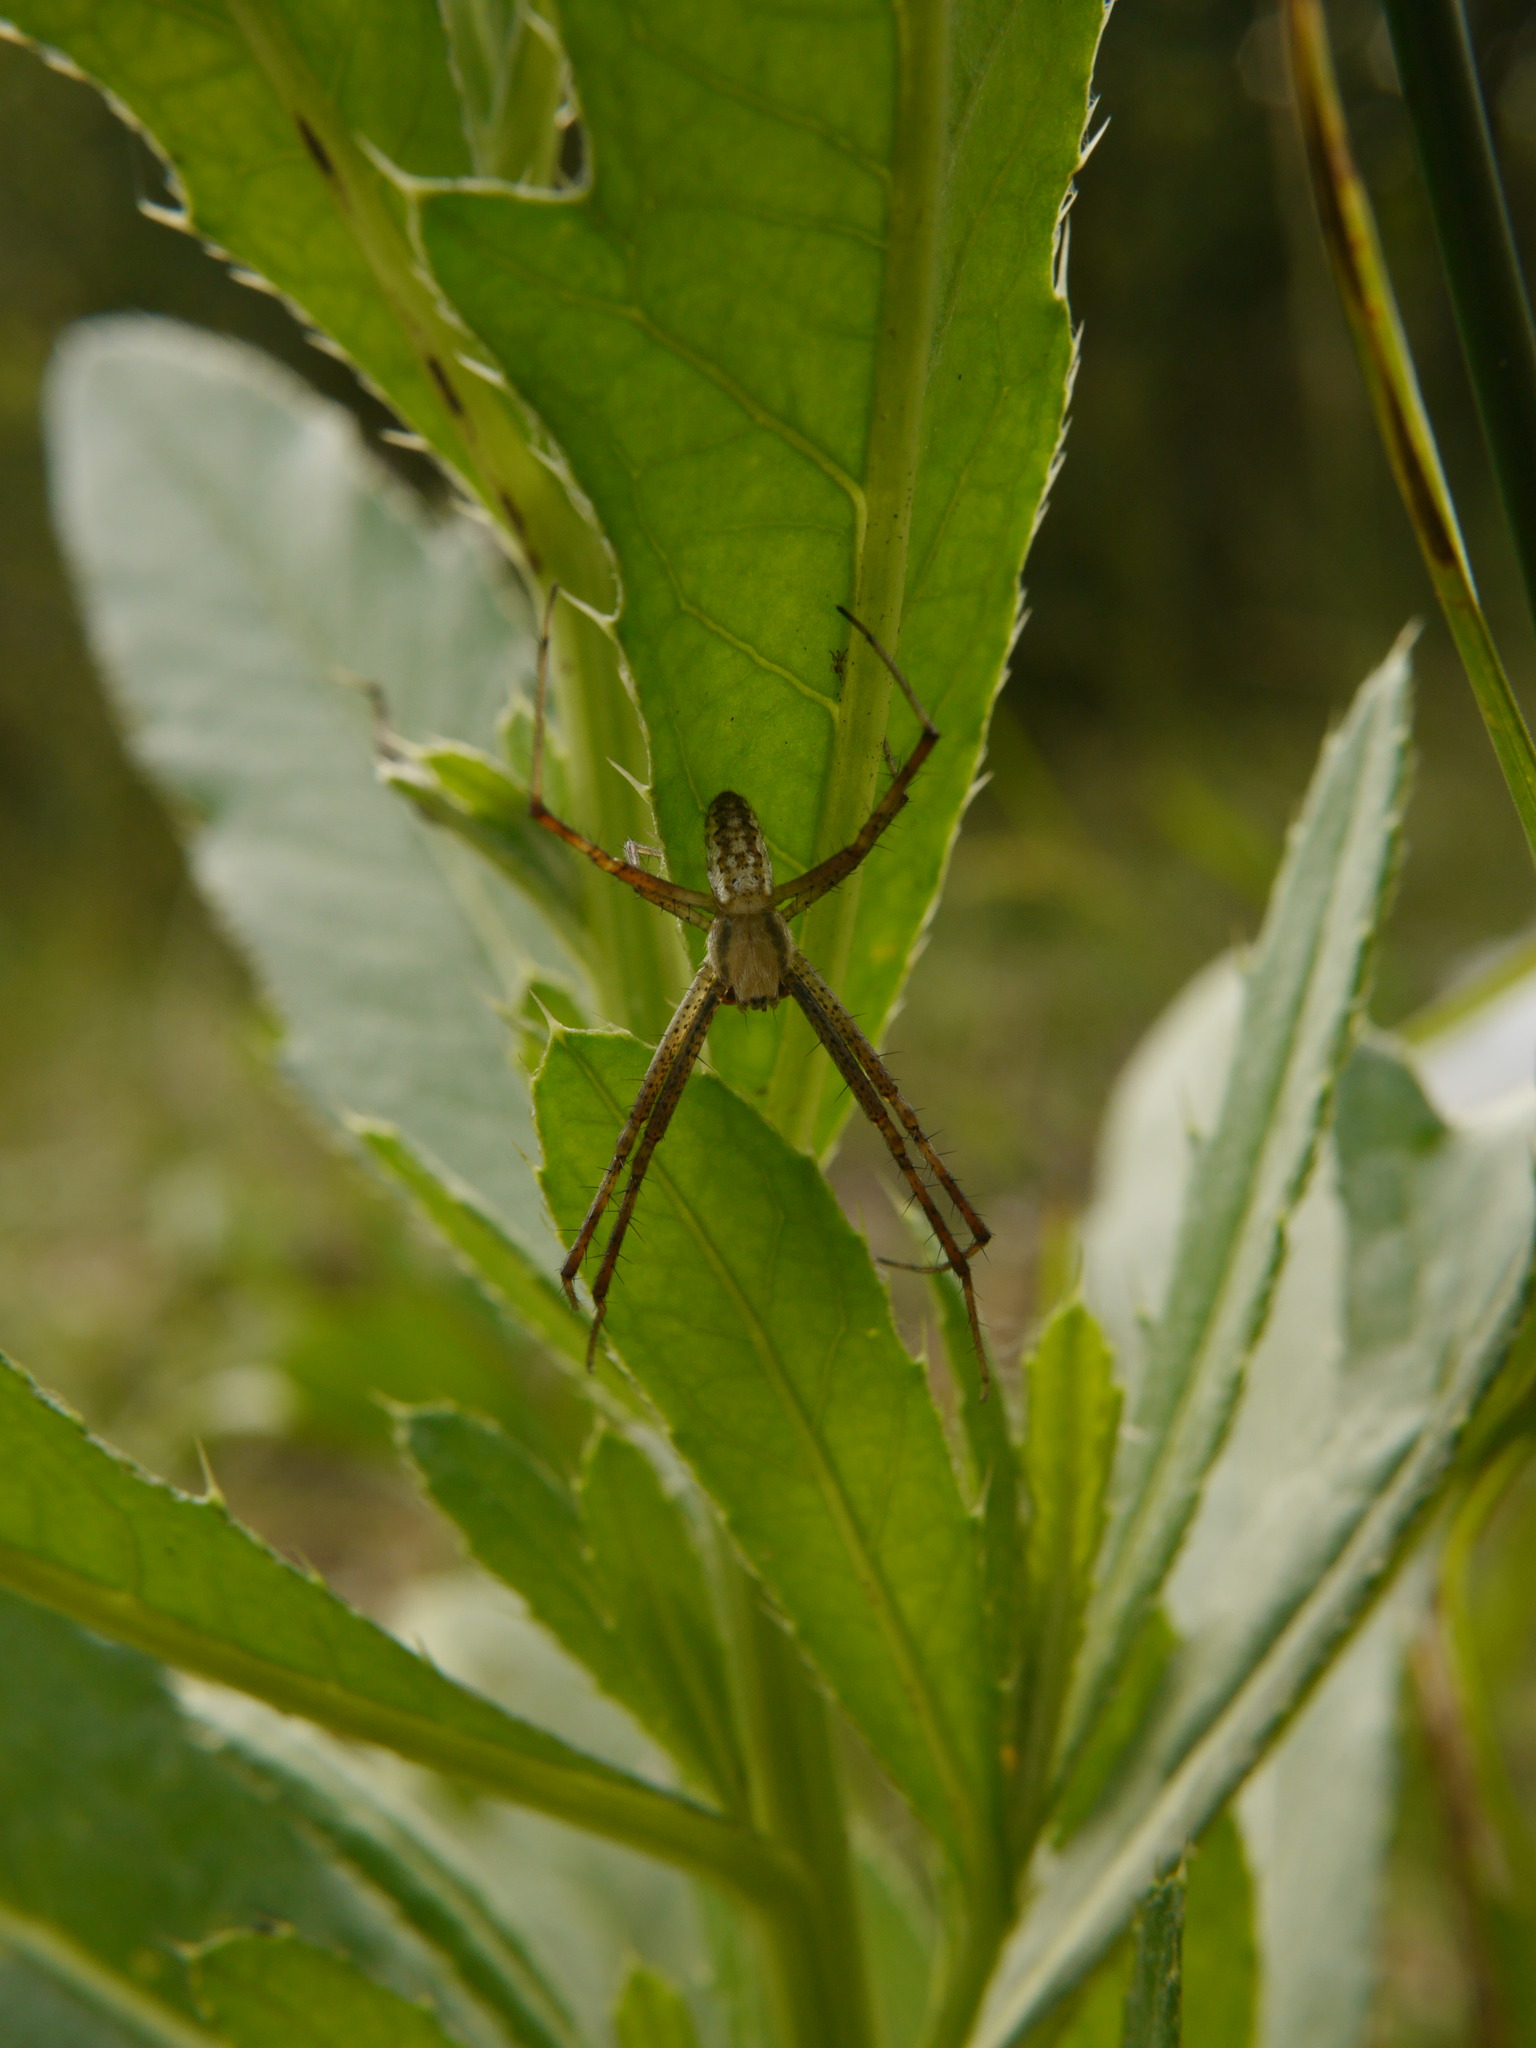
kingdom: Animalia
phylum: Arthropoda
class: Arachnida
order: Araneae
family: Araneidae
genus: Argiope
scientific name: Argiope bruennichi
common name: Wasp spider
